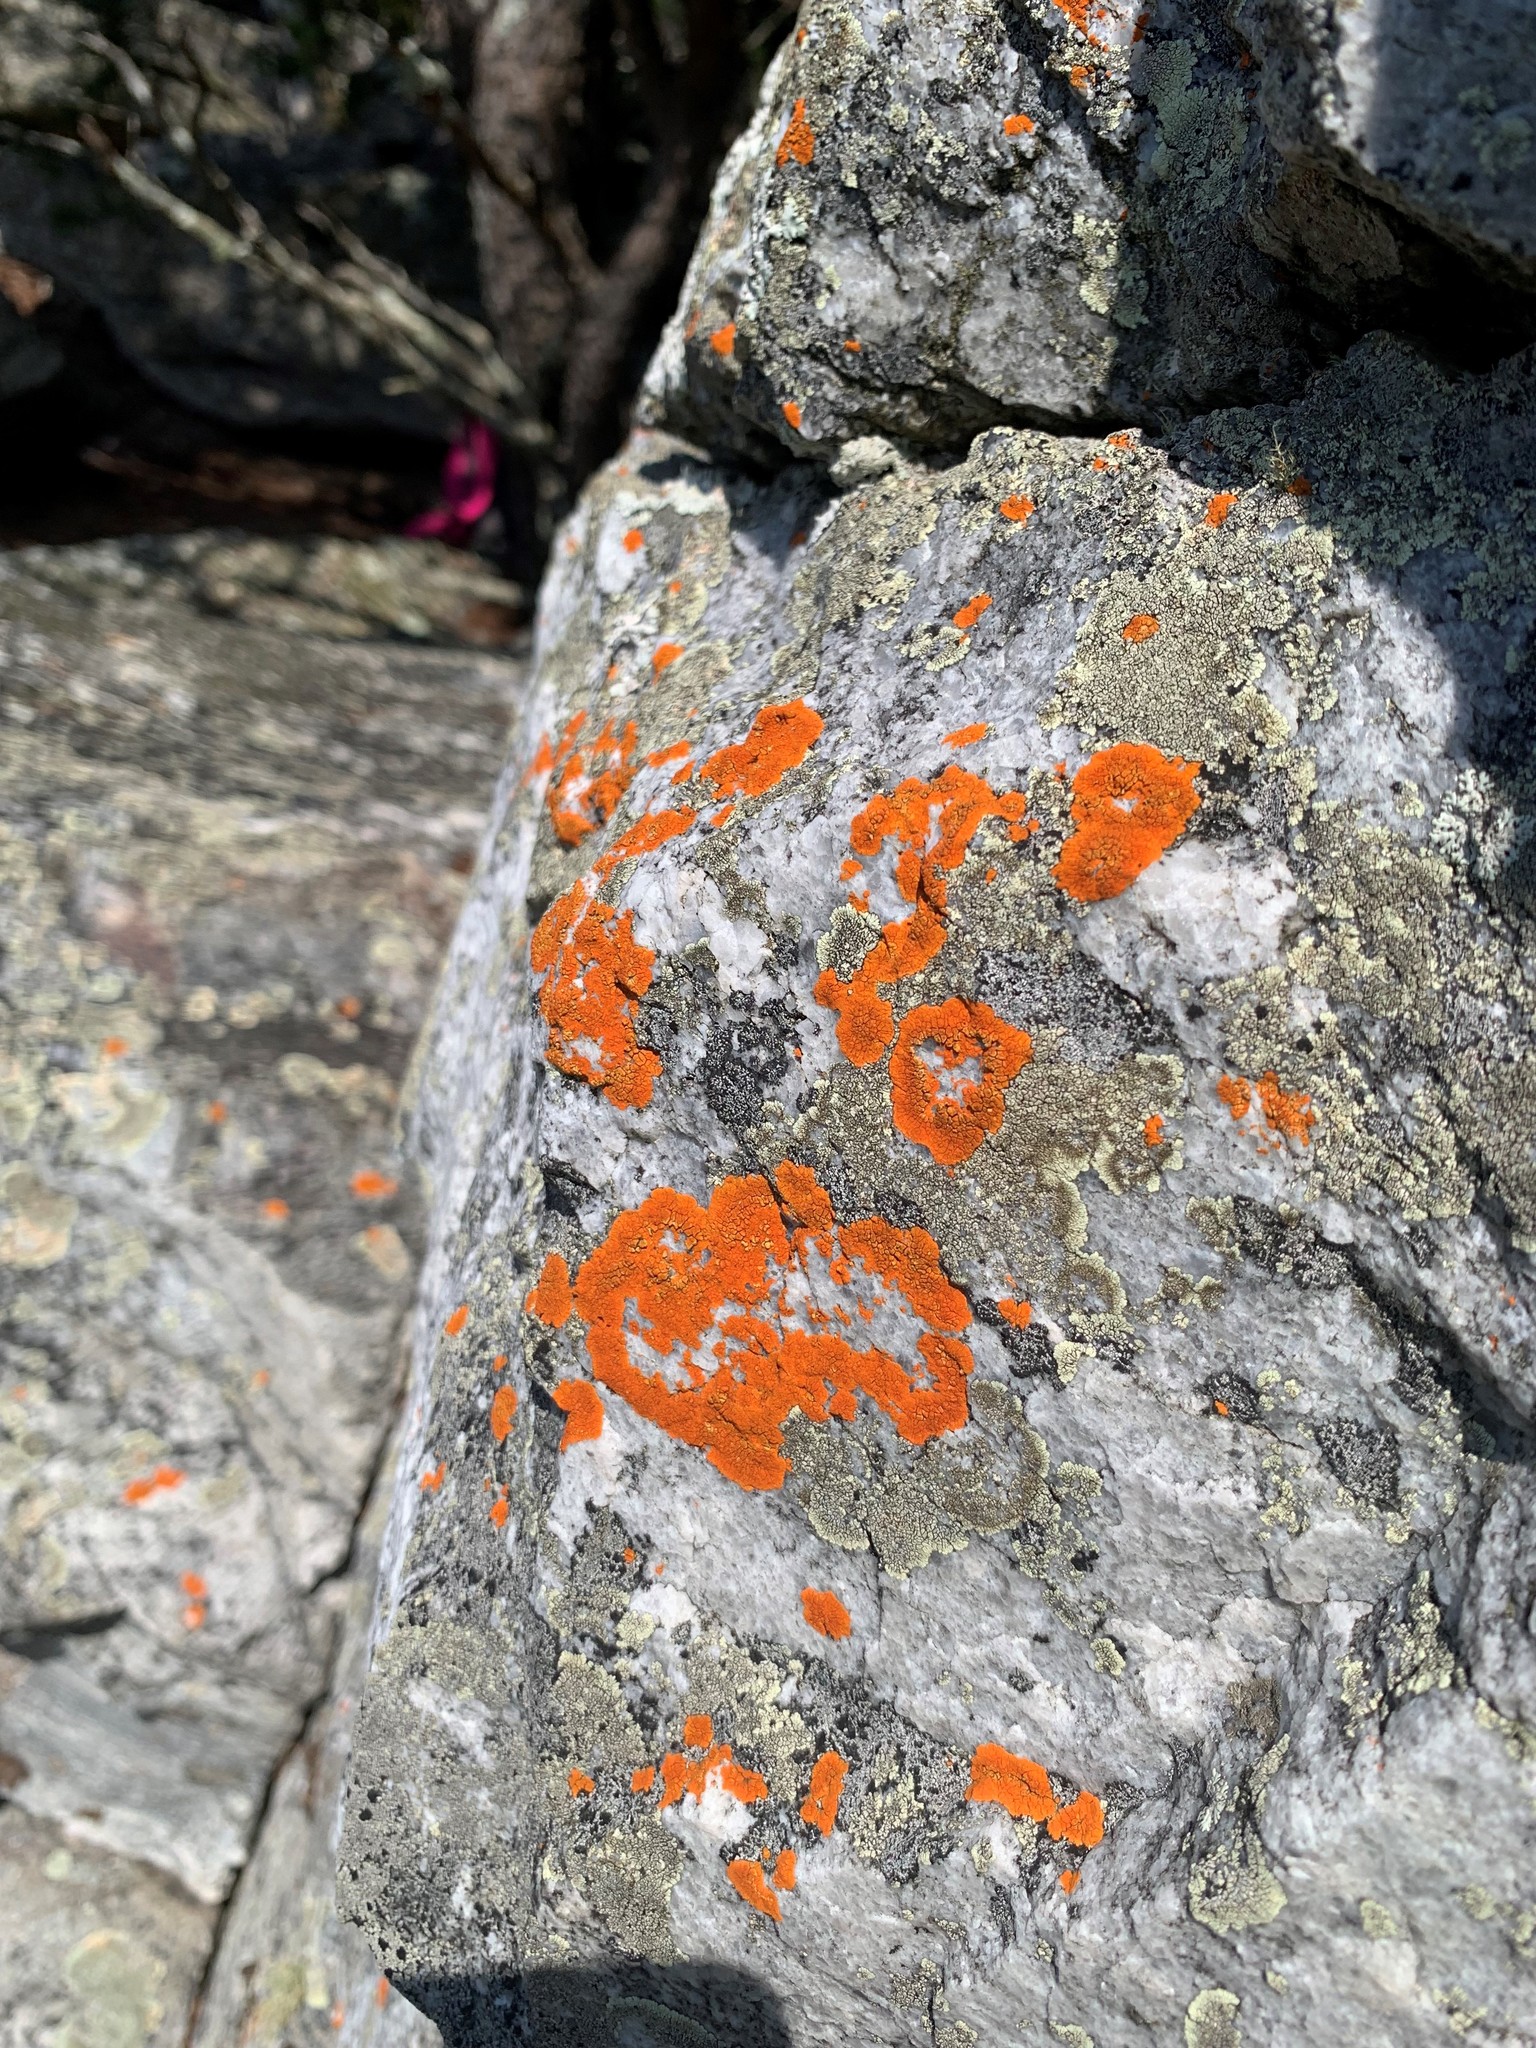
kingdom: Fungi
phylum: Ascomycota
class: Lecanoromycetes
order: Teloschistales
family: Teloschistaceae
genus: Neobrownliella
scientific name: Neobrownliella cinnabarina
